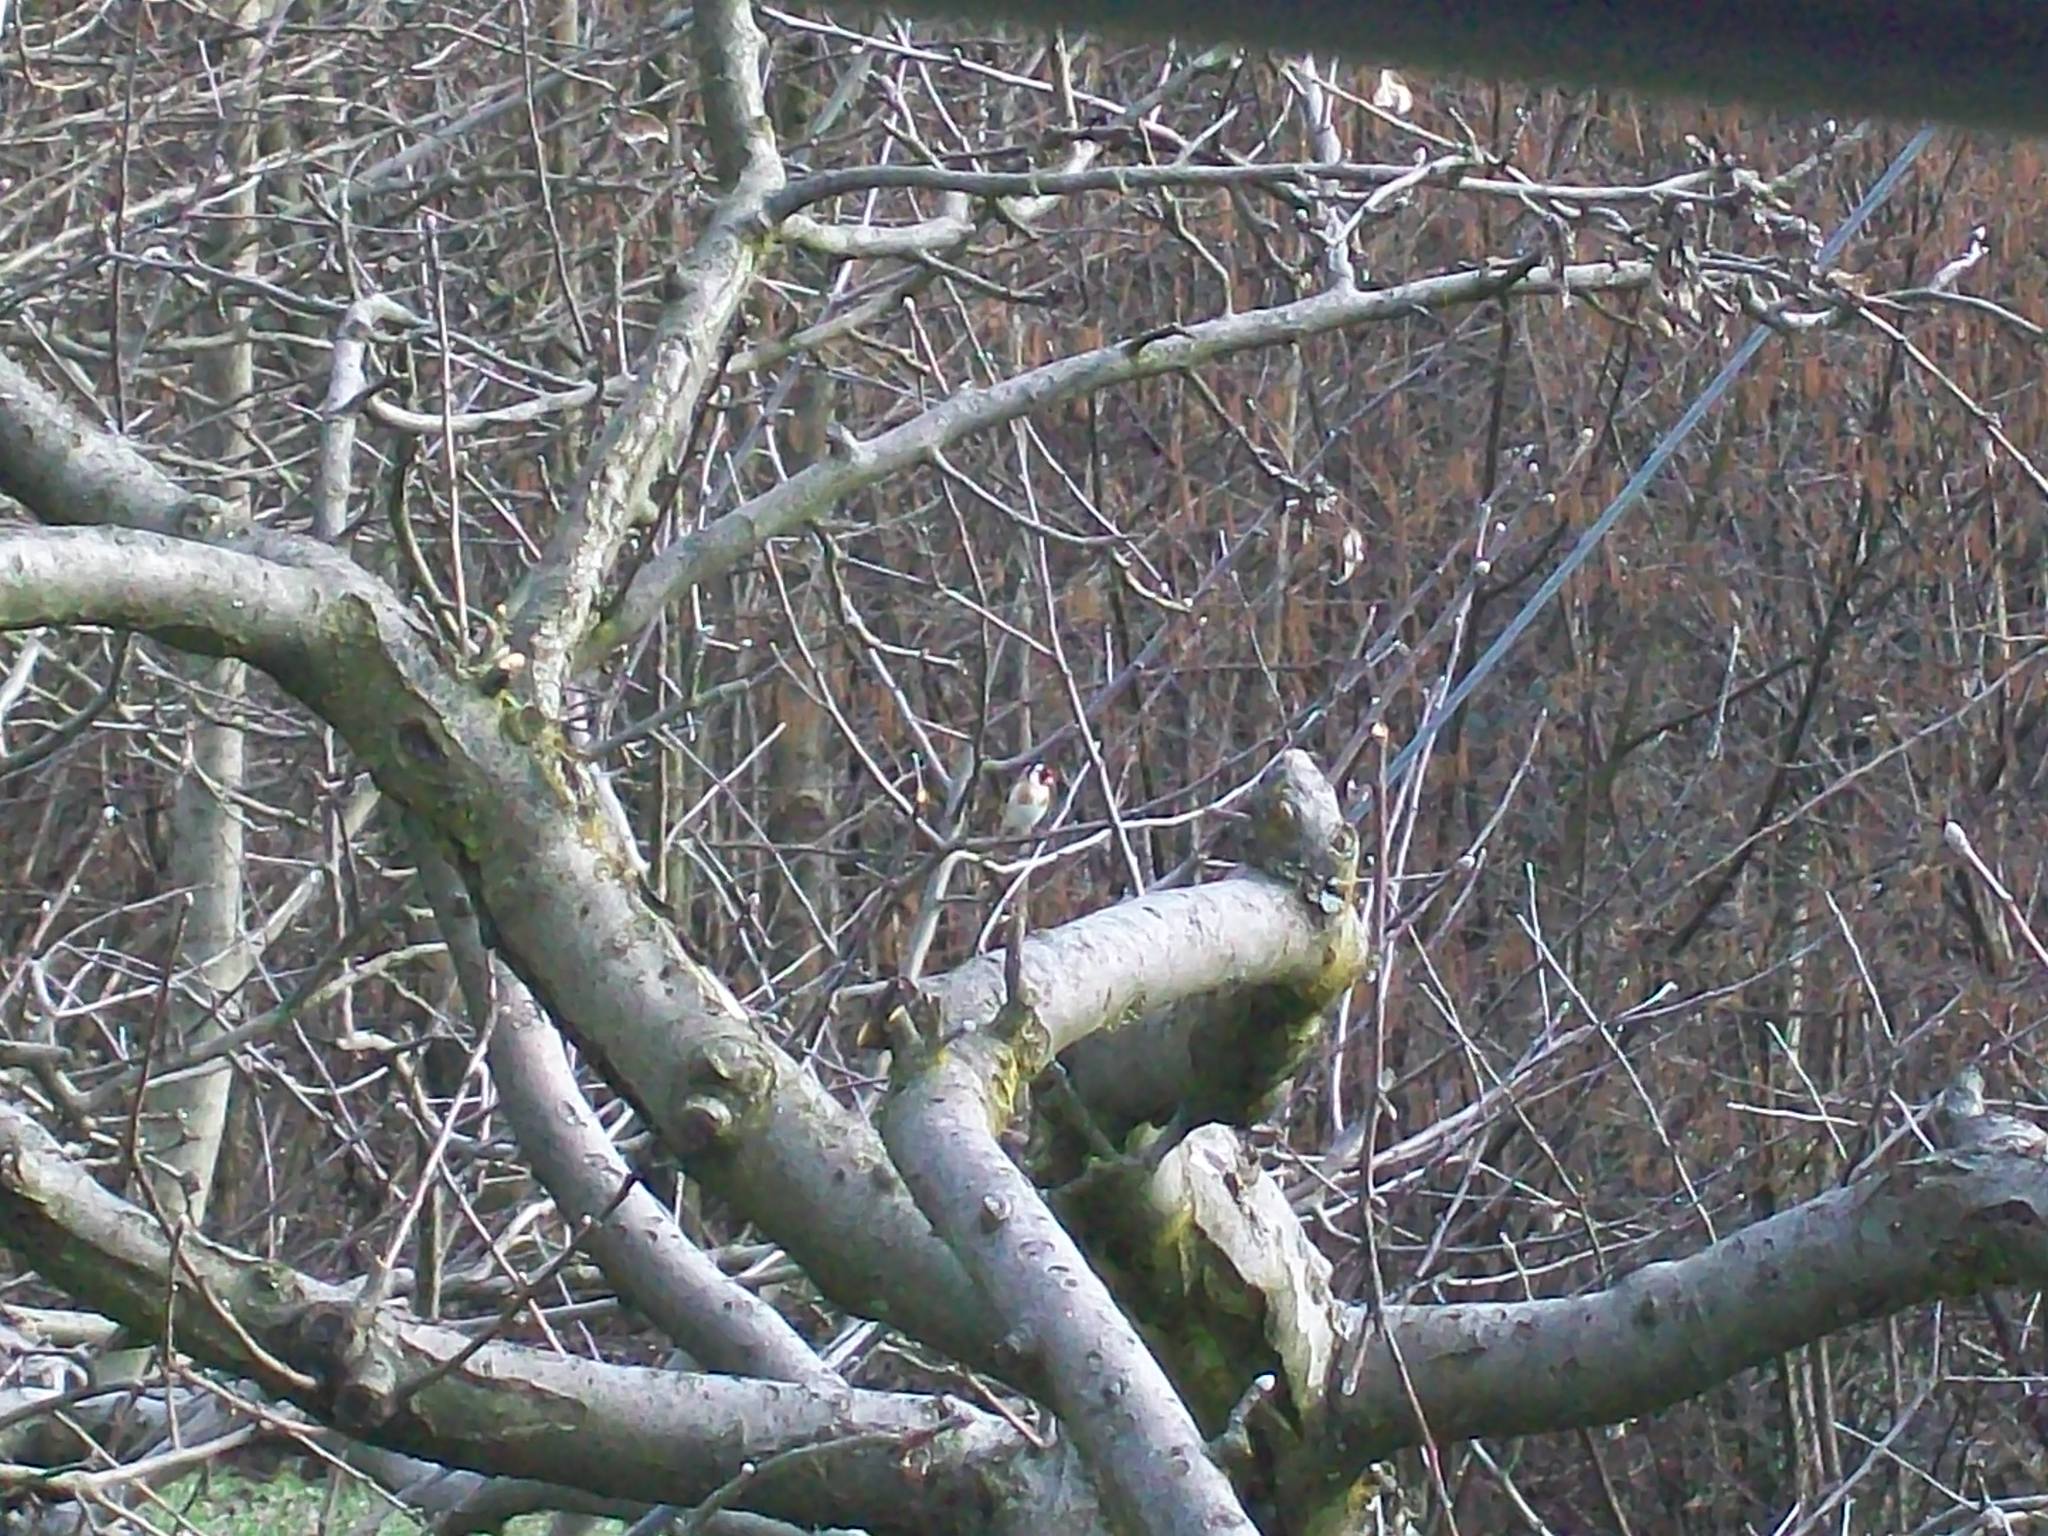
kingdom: Animalia
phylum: Chordata
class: Aves
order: Passeriformes
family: Fringillidae
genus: Carduelis
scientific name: Carduelis carduelis
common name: European goldfinch
